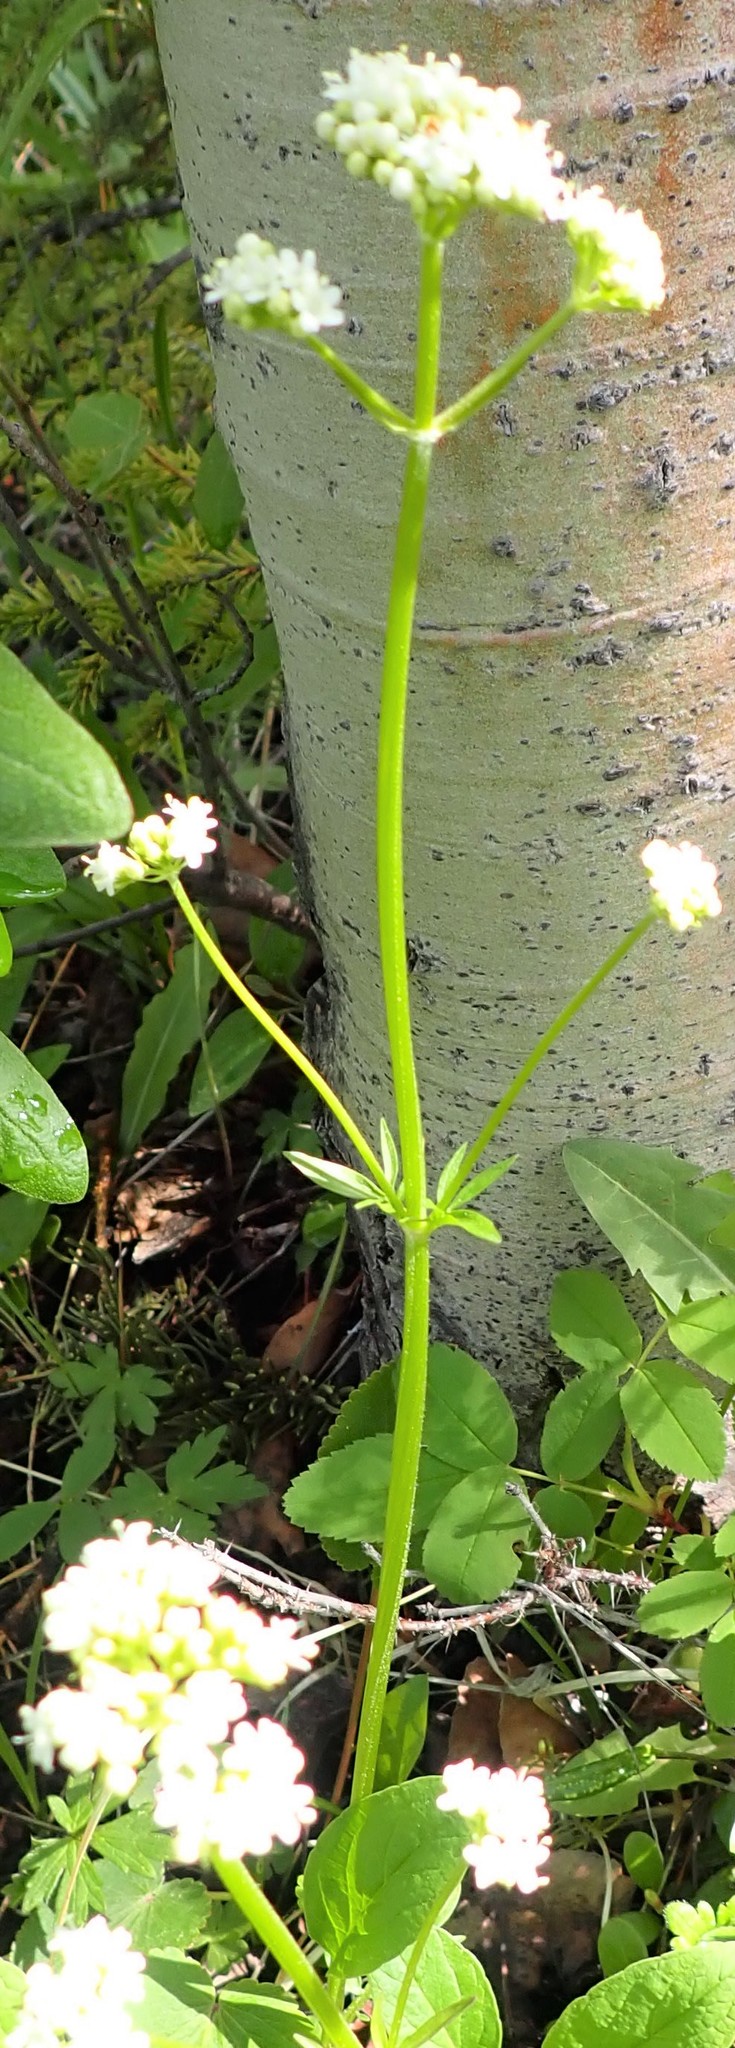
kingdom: Plantae
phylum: Tracheophyta
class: Magnoliopsida
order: Dipsacales
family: Caprifoliaceae
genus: Valeriana
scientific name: Valeriana dioica
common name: Marsh valerian
